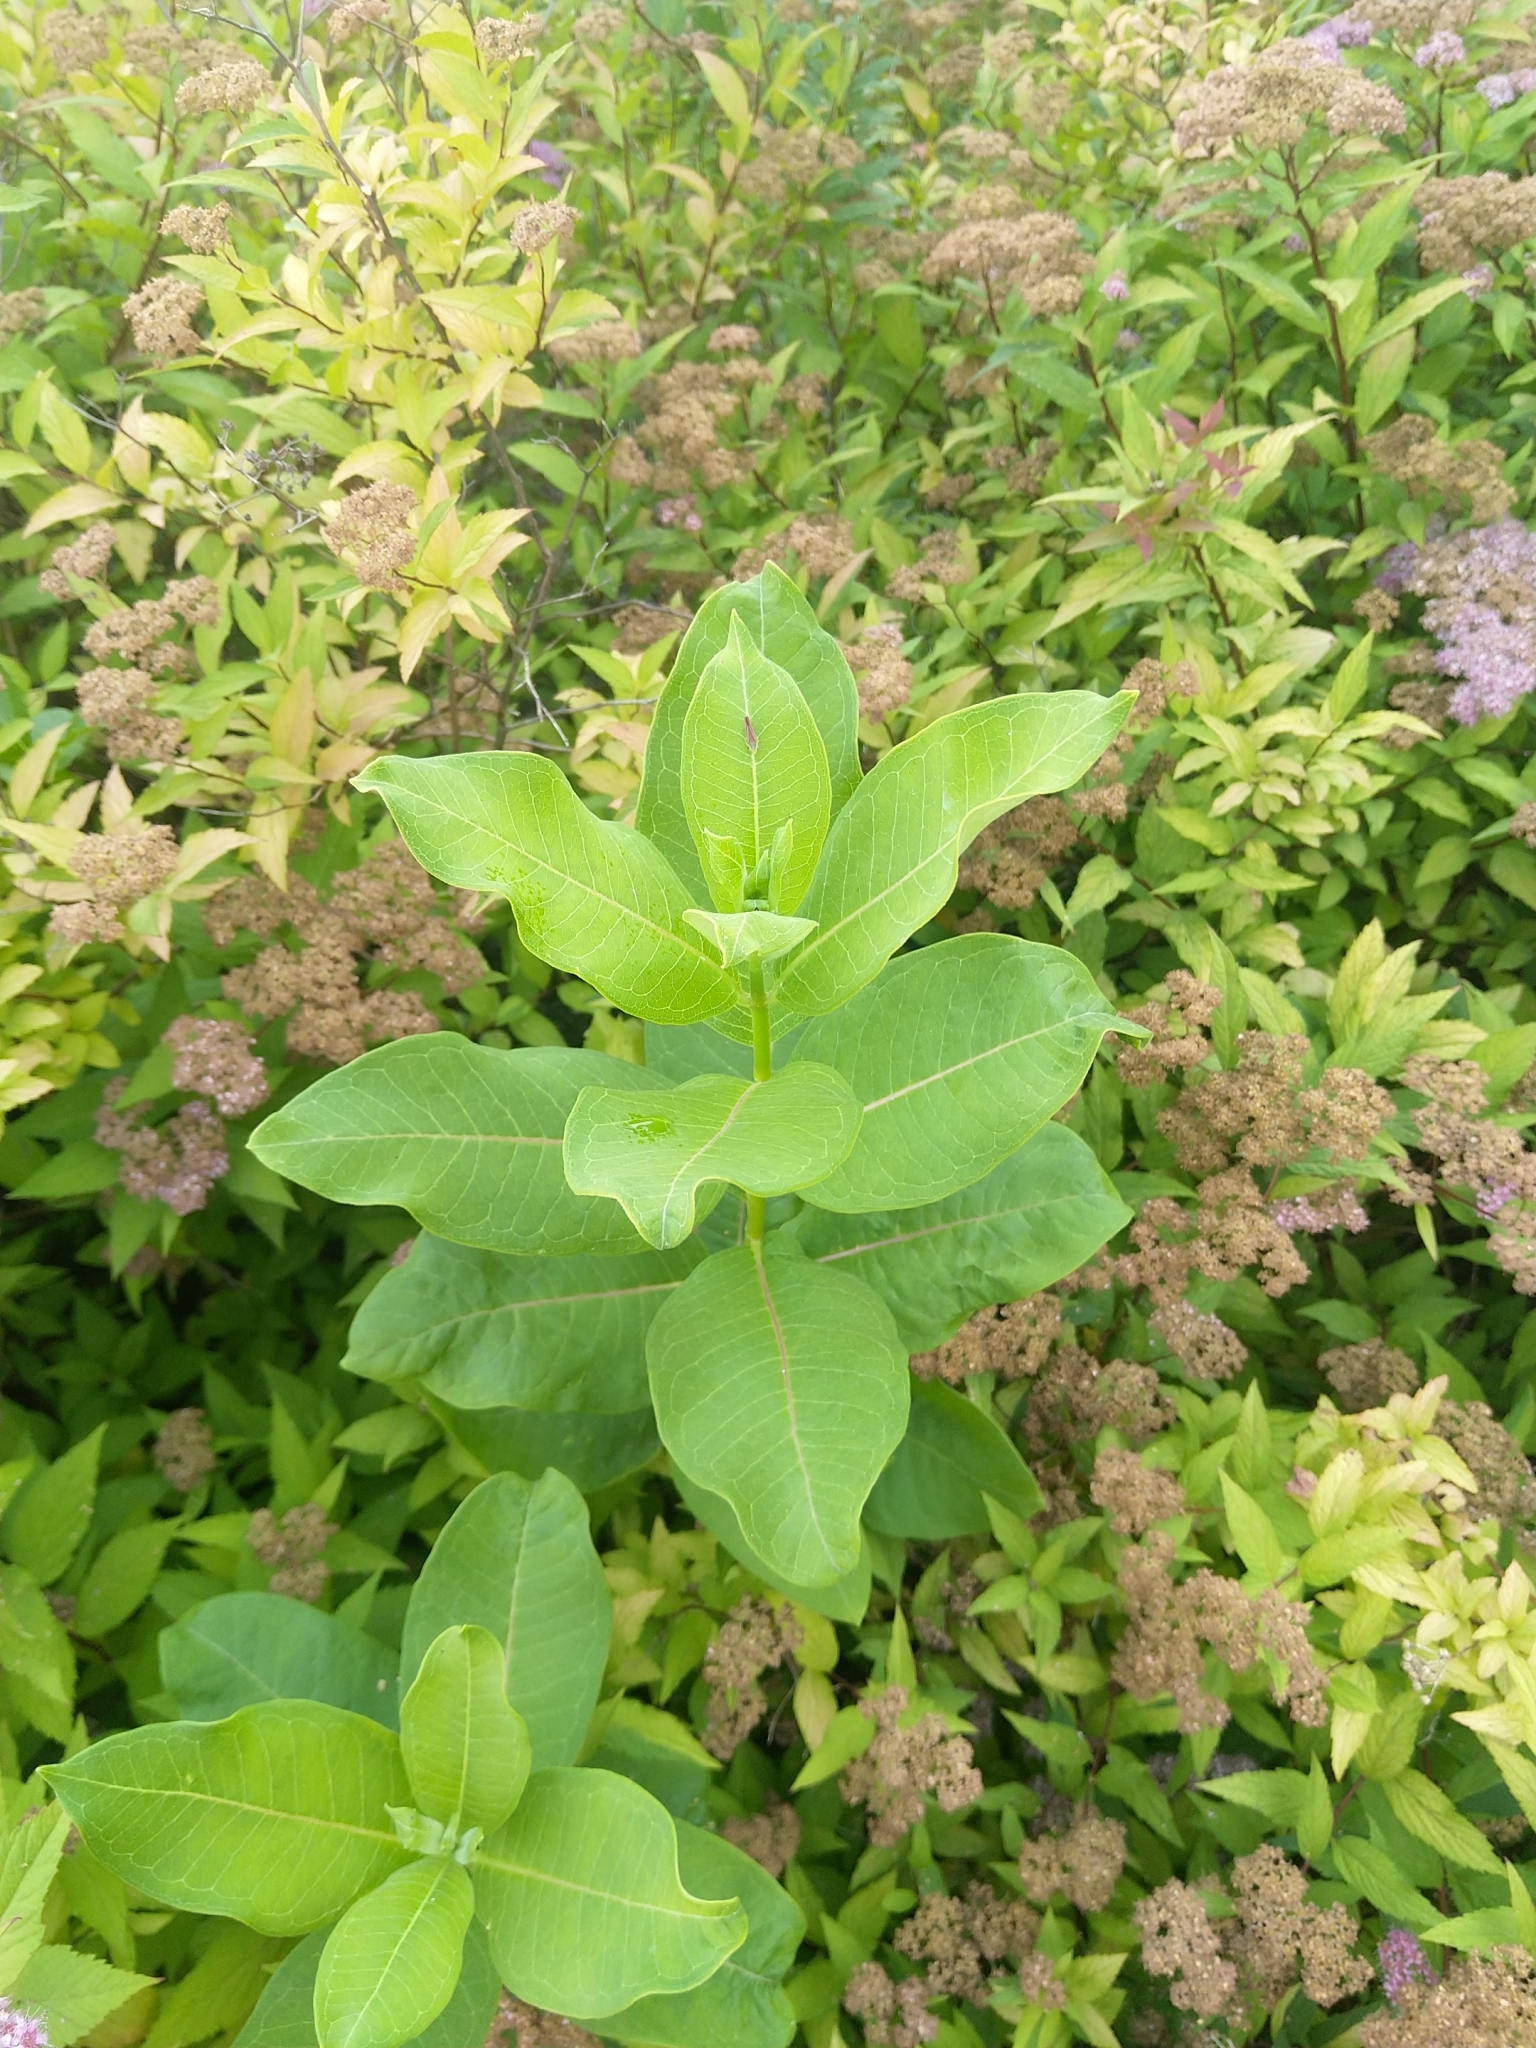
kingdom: Plantae
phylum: Tracheophyta
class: Magnoliopsida
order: Gentianales
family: Apocynaceae
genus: Asclepias
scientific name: Asclepias syriaca
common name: Common milkweed
